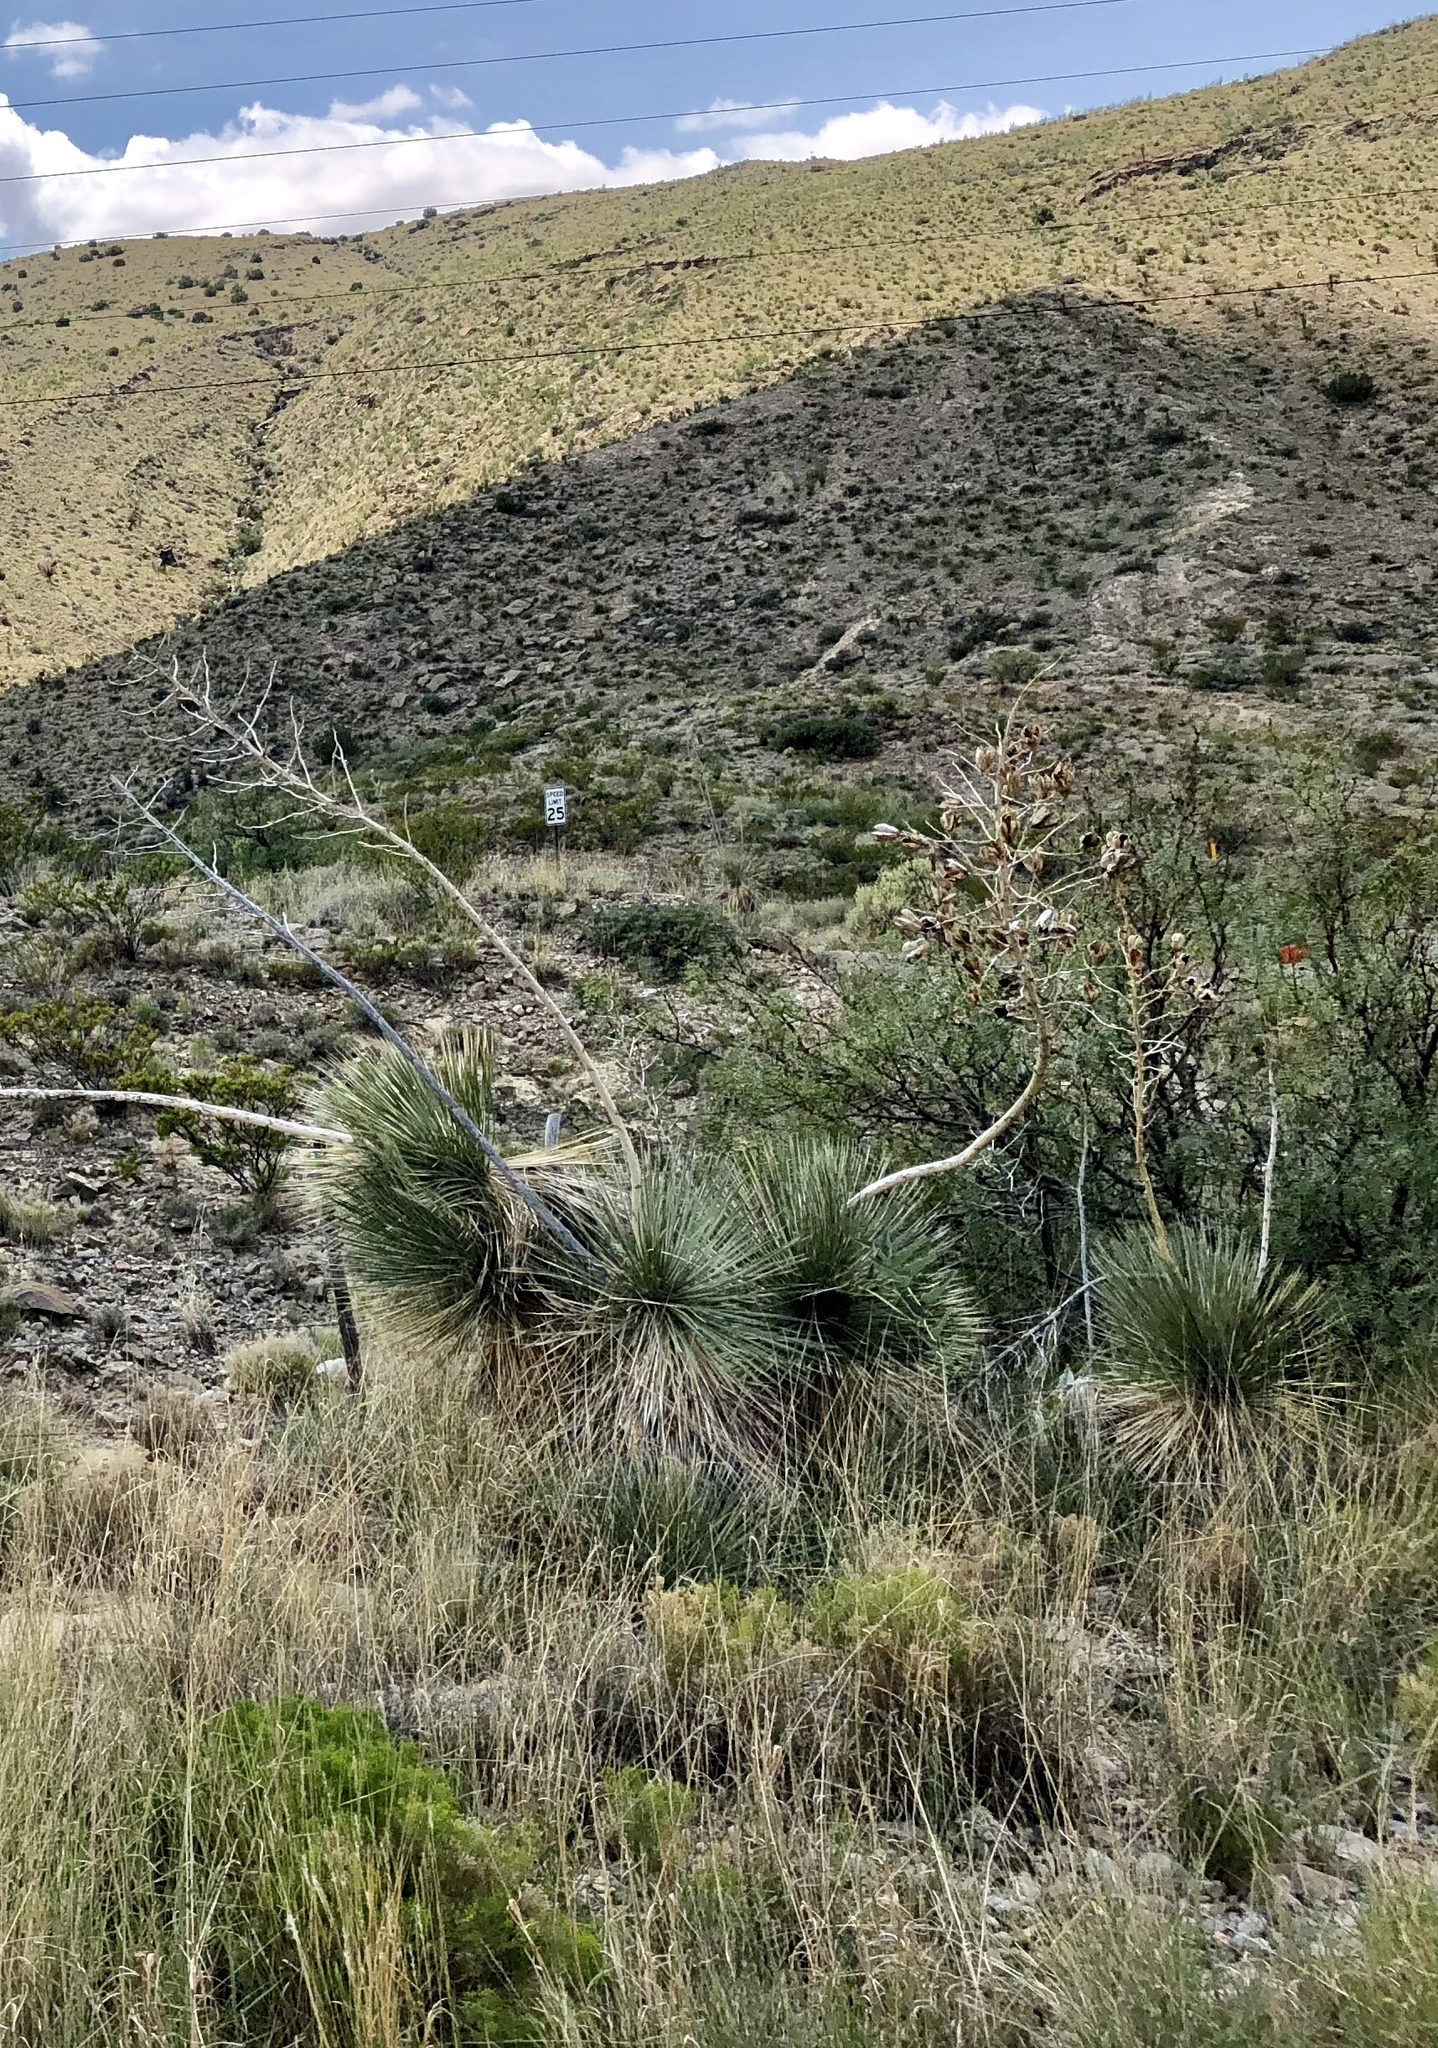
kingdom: Plantae
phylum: Tracheophyta
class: Liliopsida
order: Asparagales
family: Asparagaceae
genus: Yucca
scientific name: Yucca elata
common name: Palmella
